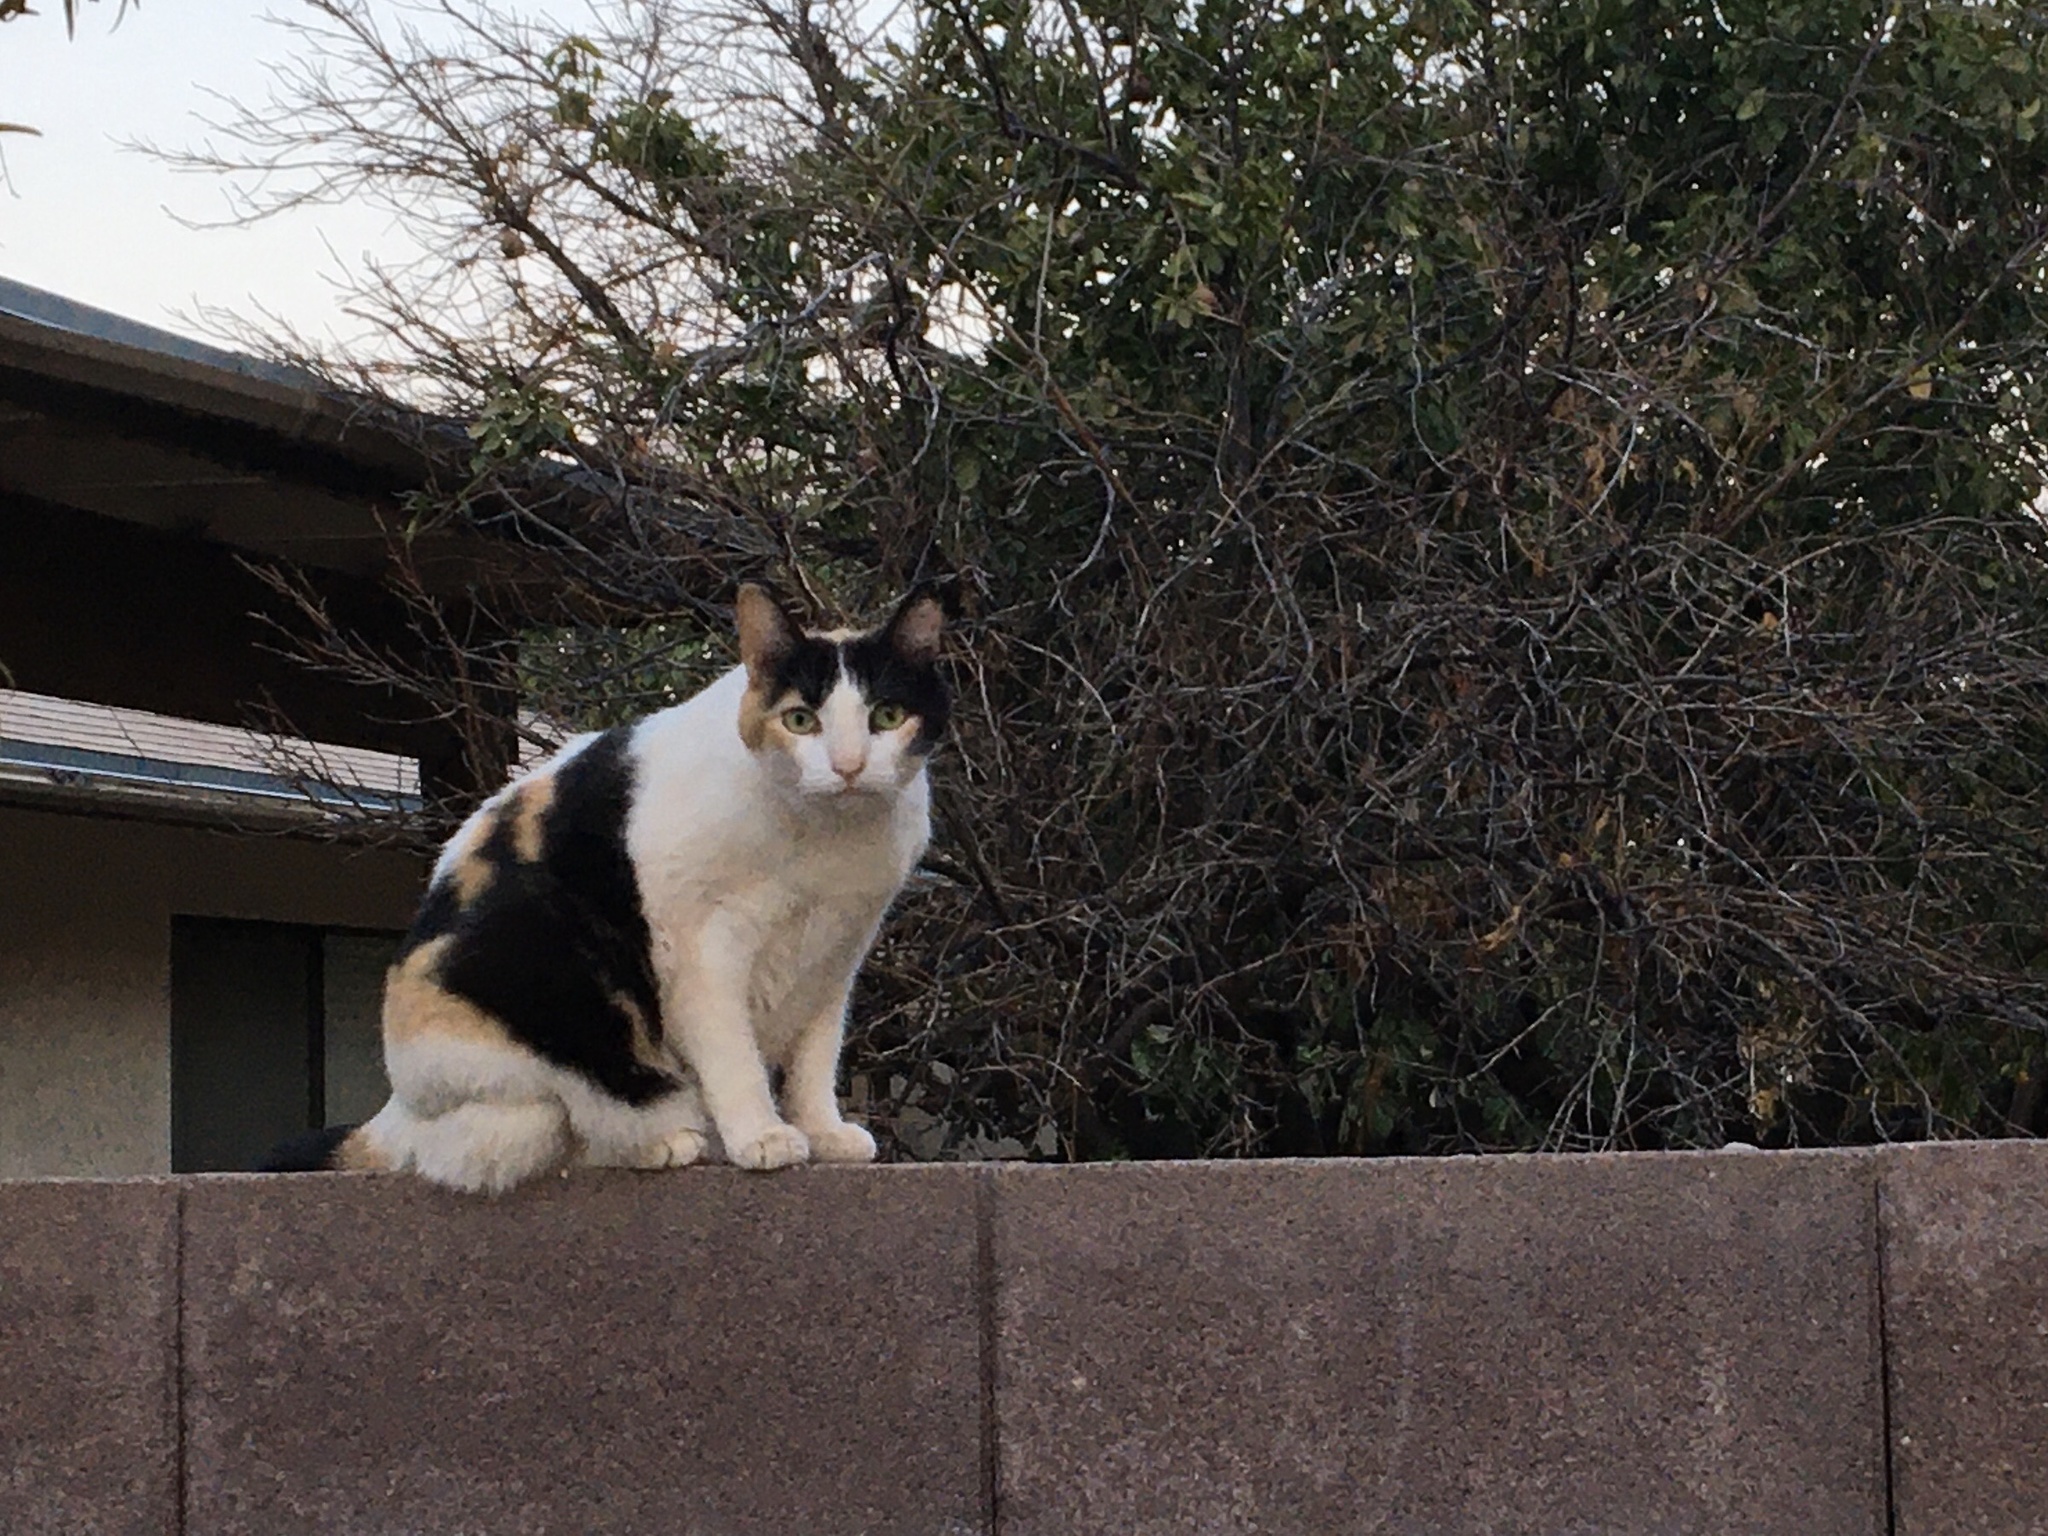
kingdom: Animalia
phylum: Chordata
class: Mammalia
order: Carnivora
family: Felidae
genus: Felis
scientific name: Felis catus
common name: Domestic cat
